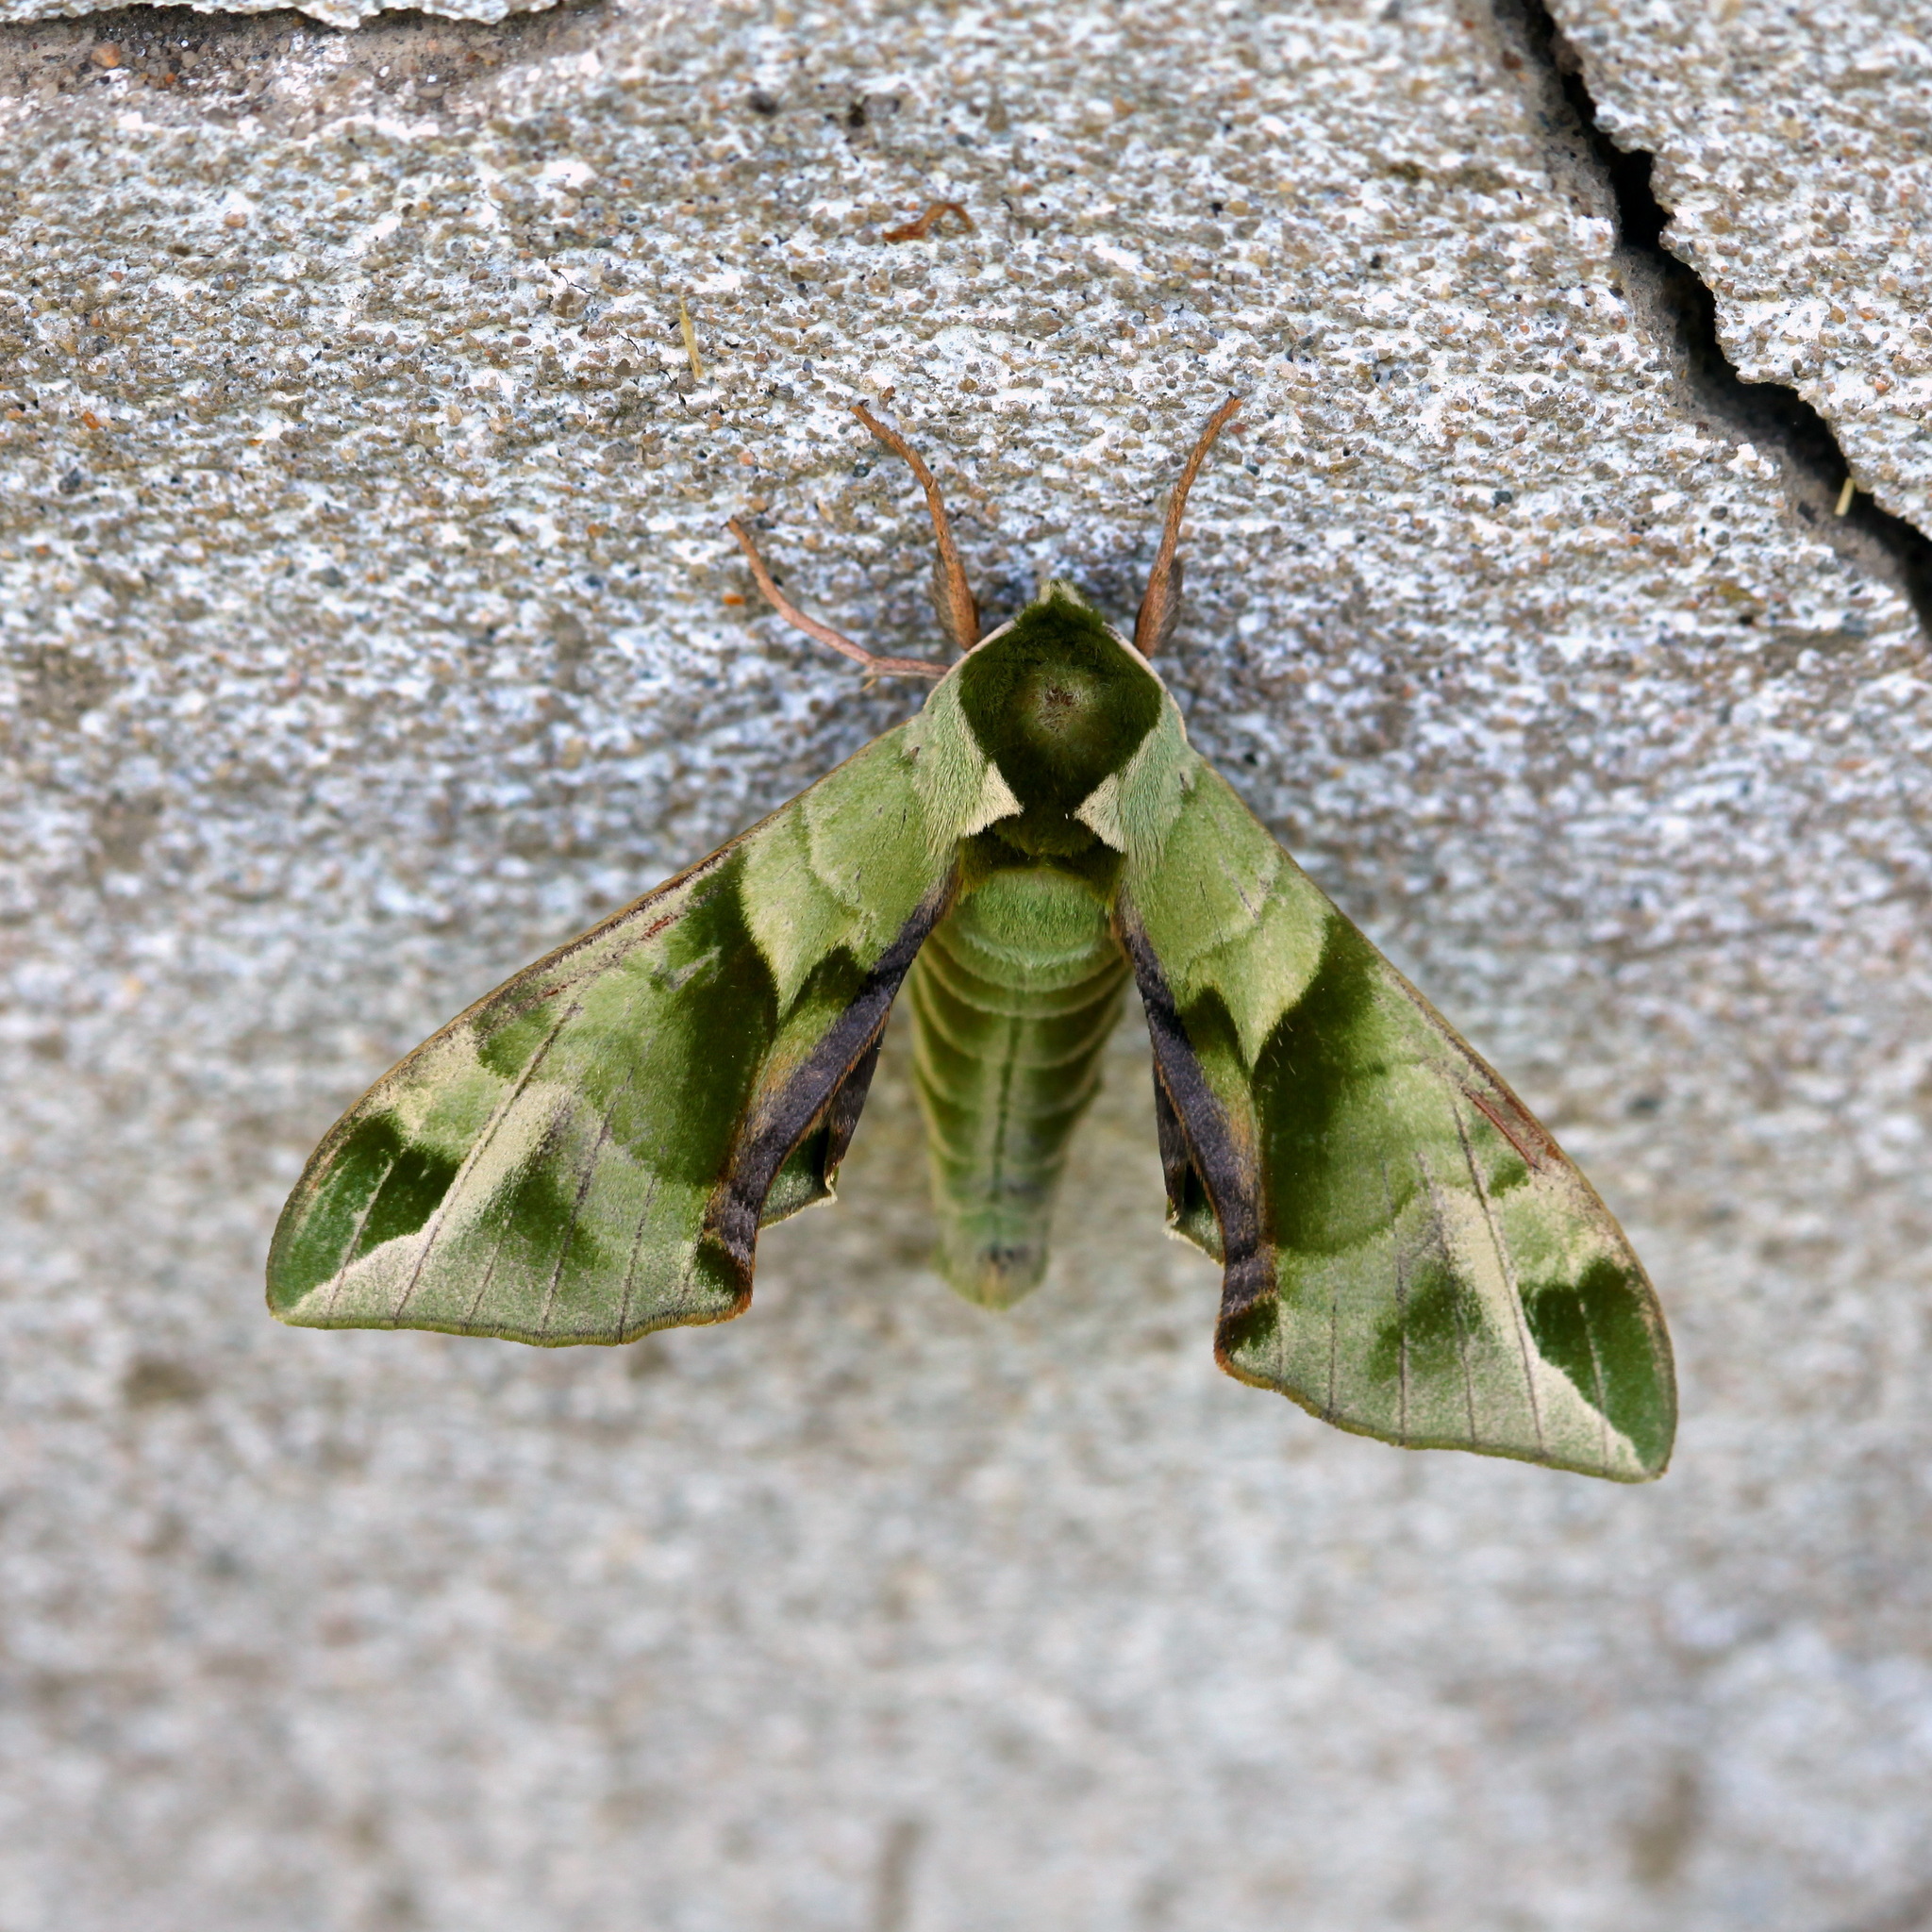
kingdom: Animalia
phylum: Arthropoda
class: Insecta
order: Lepidoptera
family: Sphingidae
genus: Callambulyx
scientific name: Callambulyx tatarinovii
